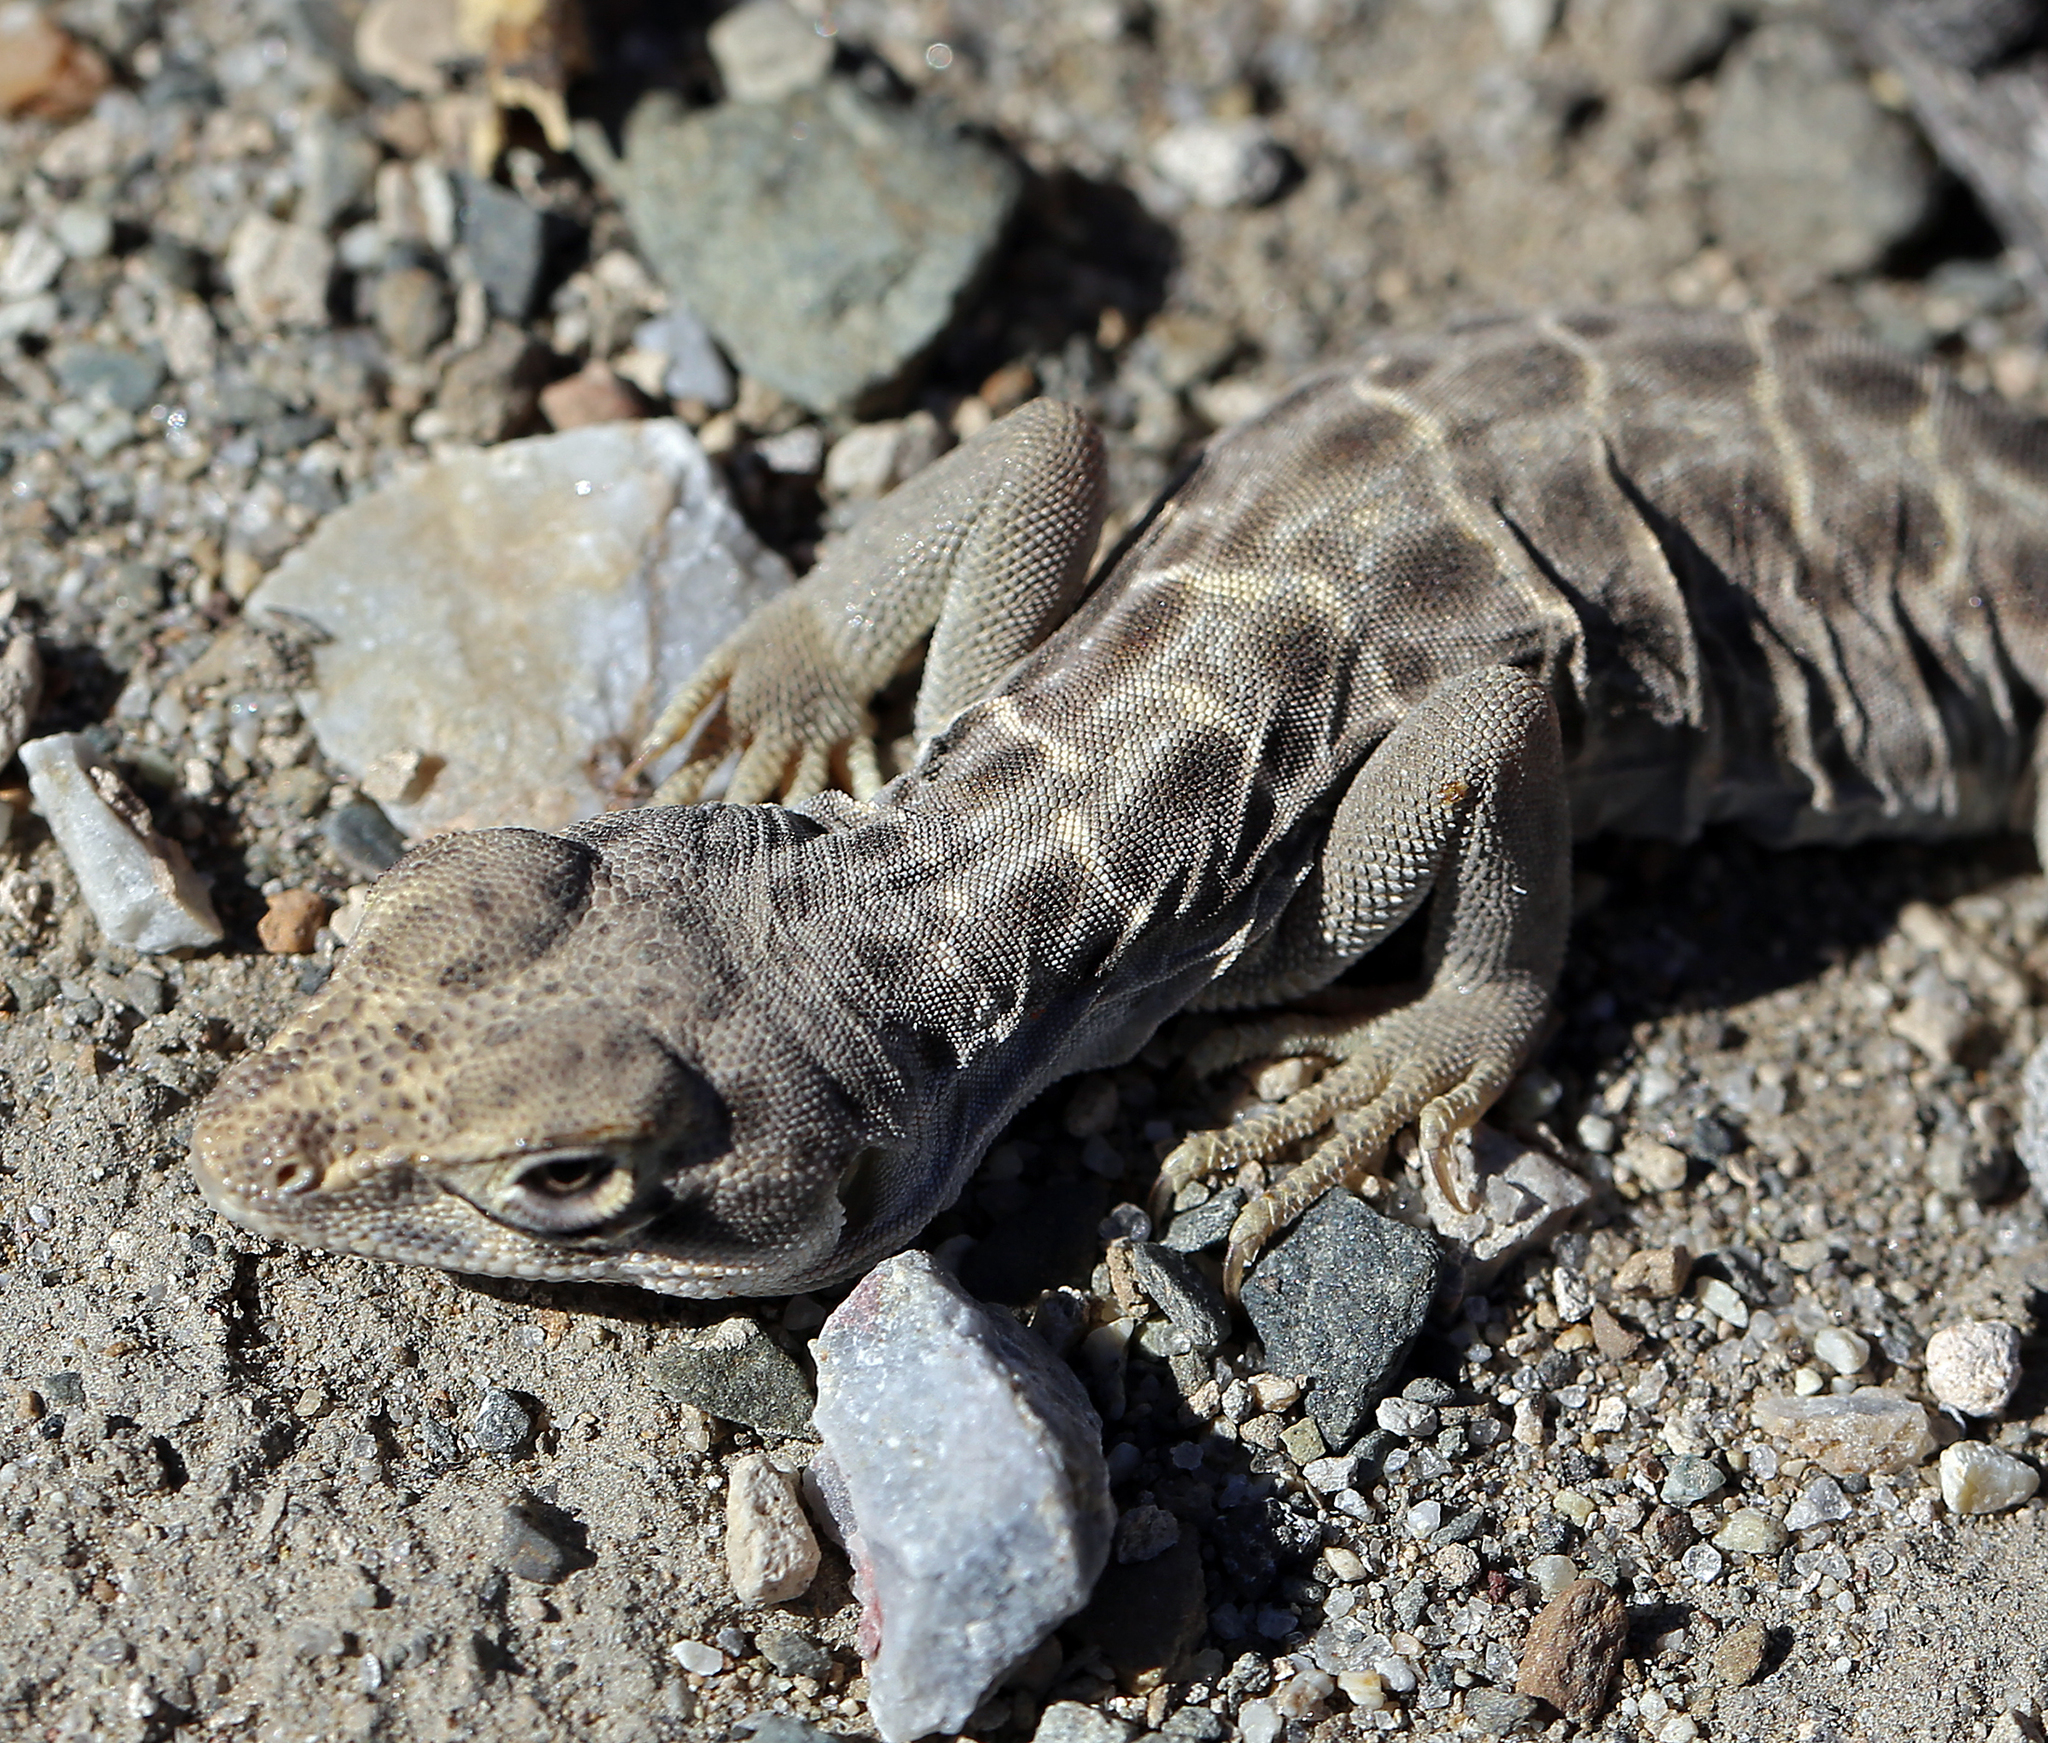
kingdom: Animalia
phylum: Chordata
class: Squamata
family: Crotaphytidae
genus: Gambelia
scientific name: Gambelia wislizenii
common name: Longnose leopard lizard
